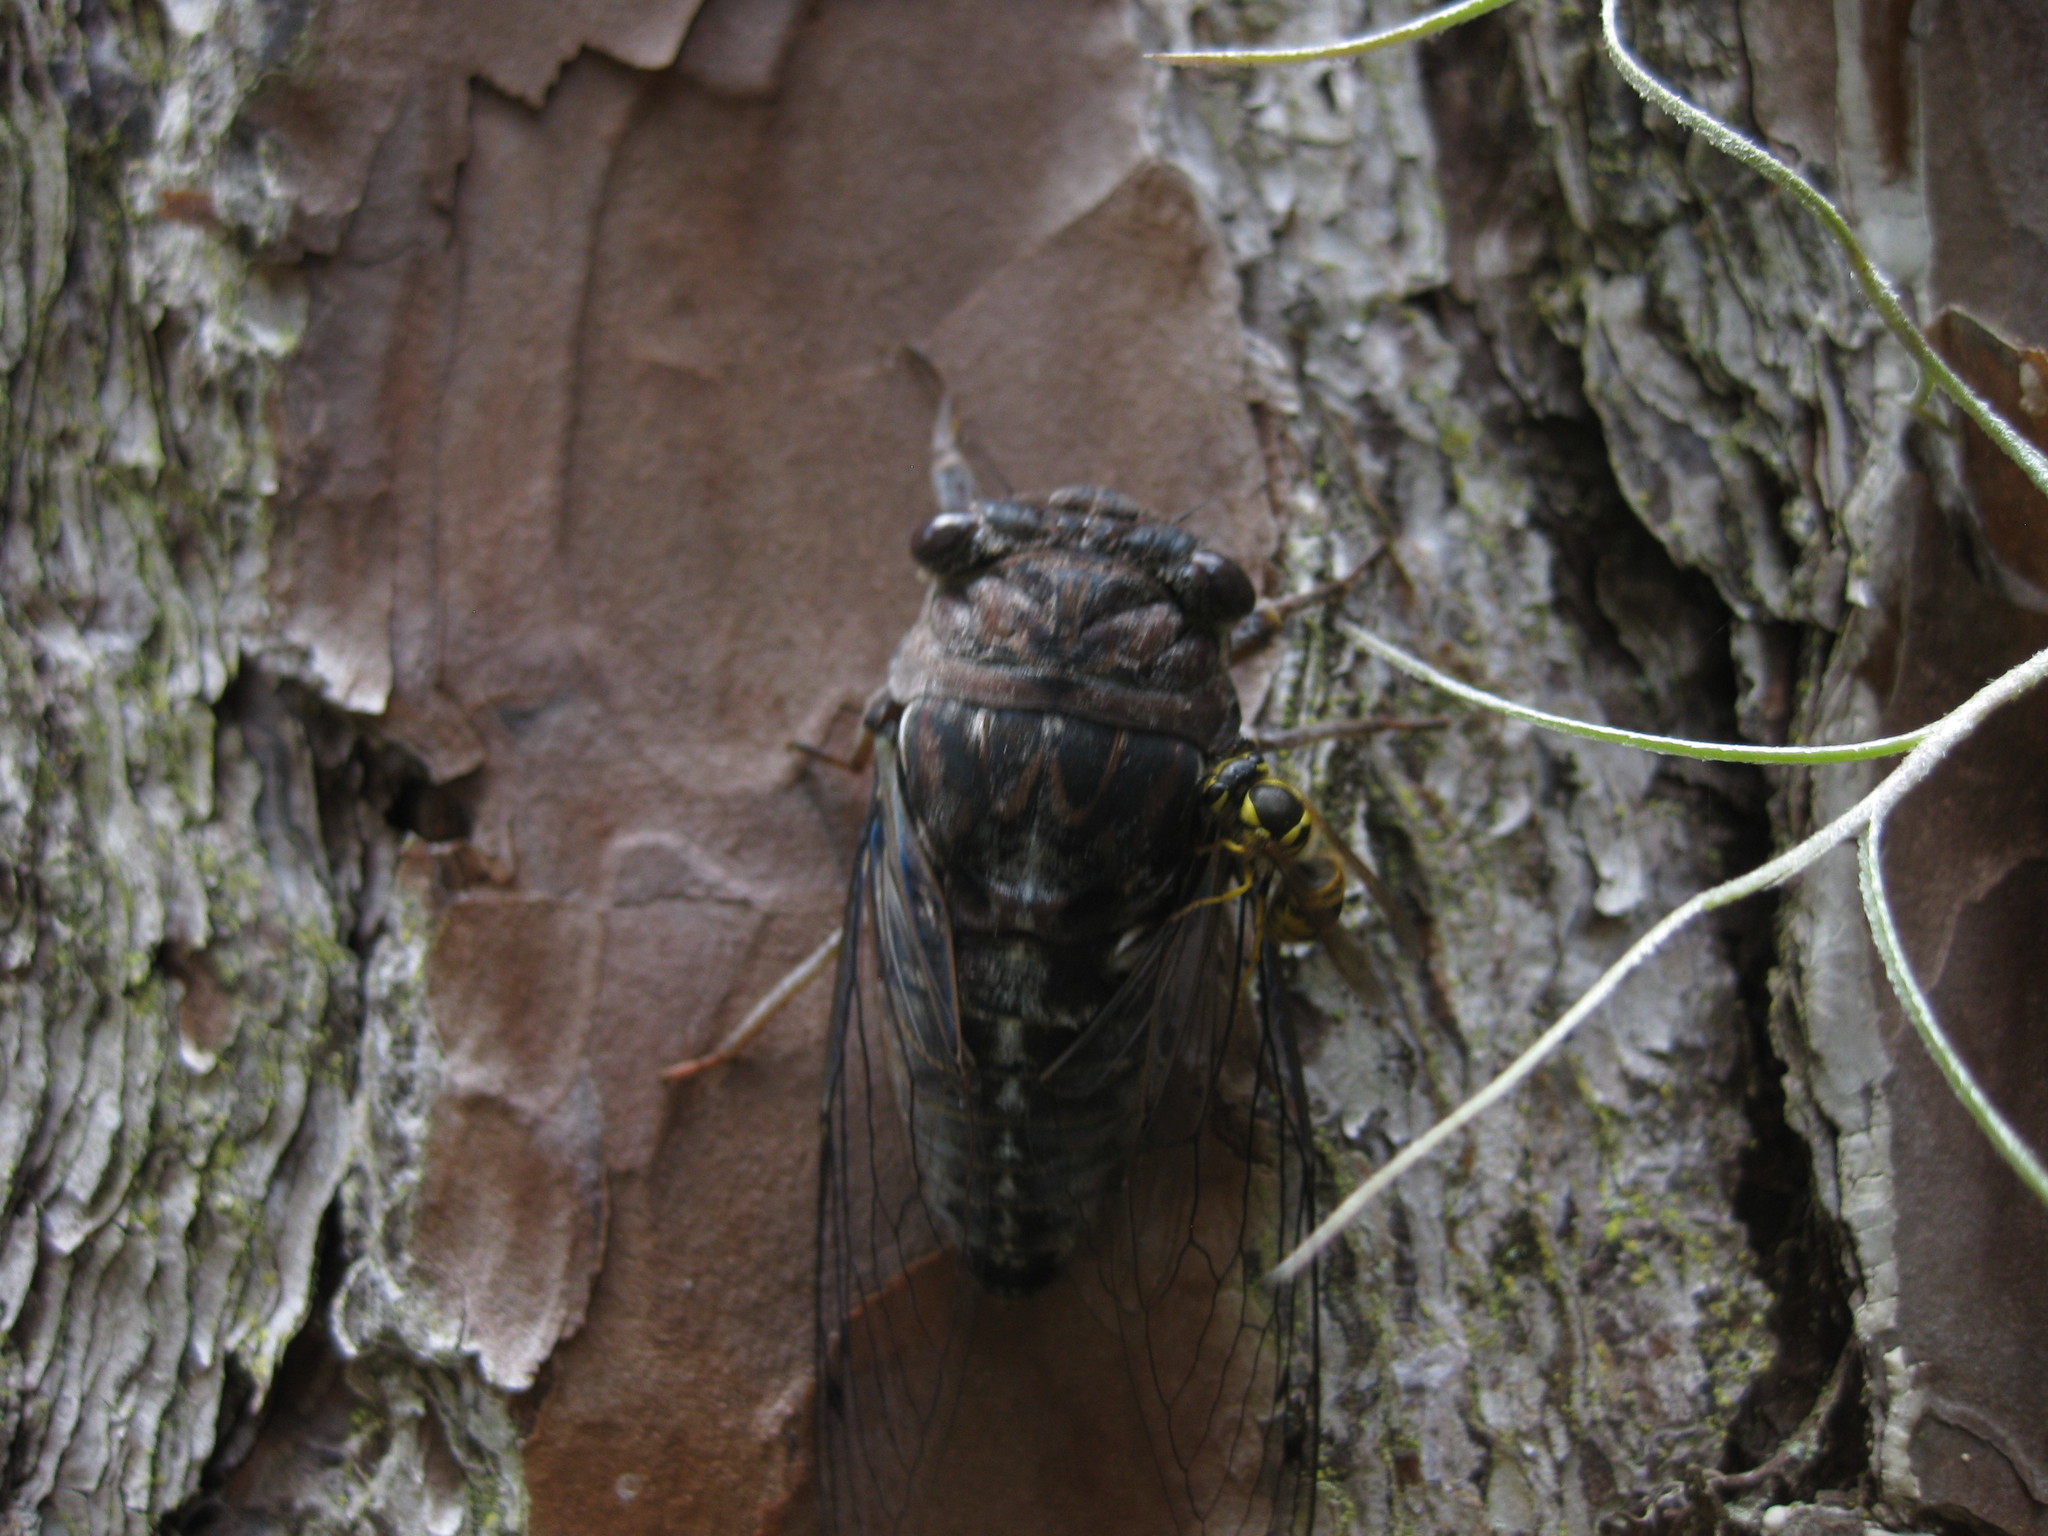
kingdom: Animalia
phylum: Arthropoda
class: Insecta
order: Hemiptera
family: Cicadidae
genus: Megatibicen
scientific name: Megatibicen figuratus
